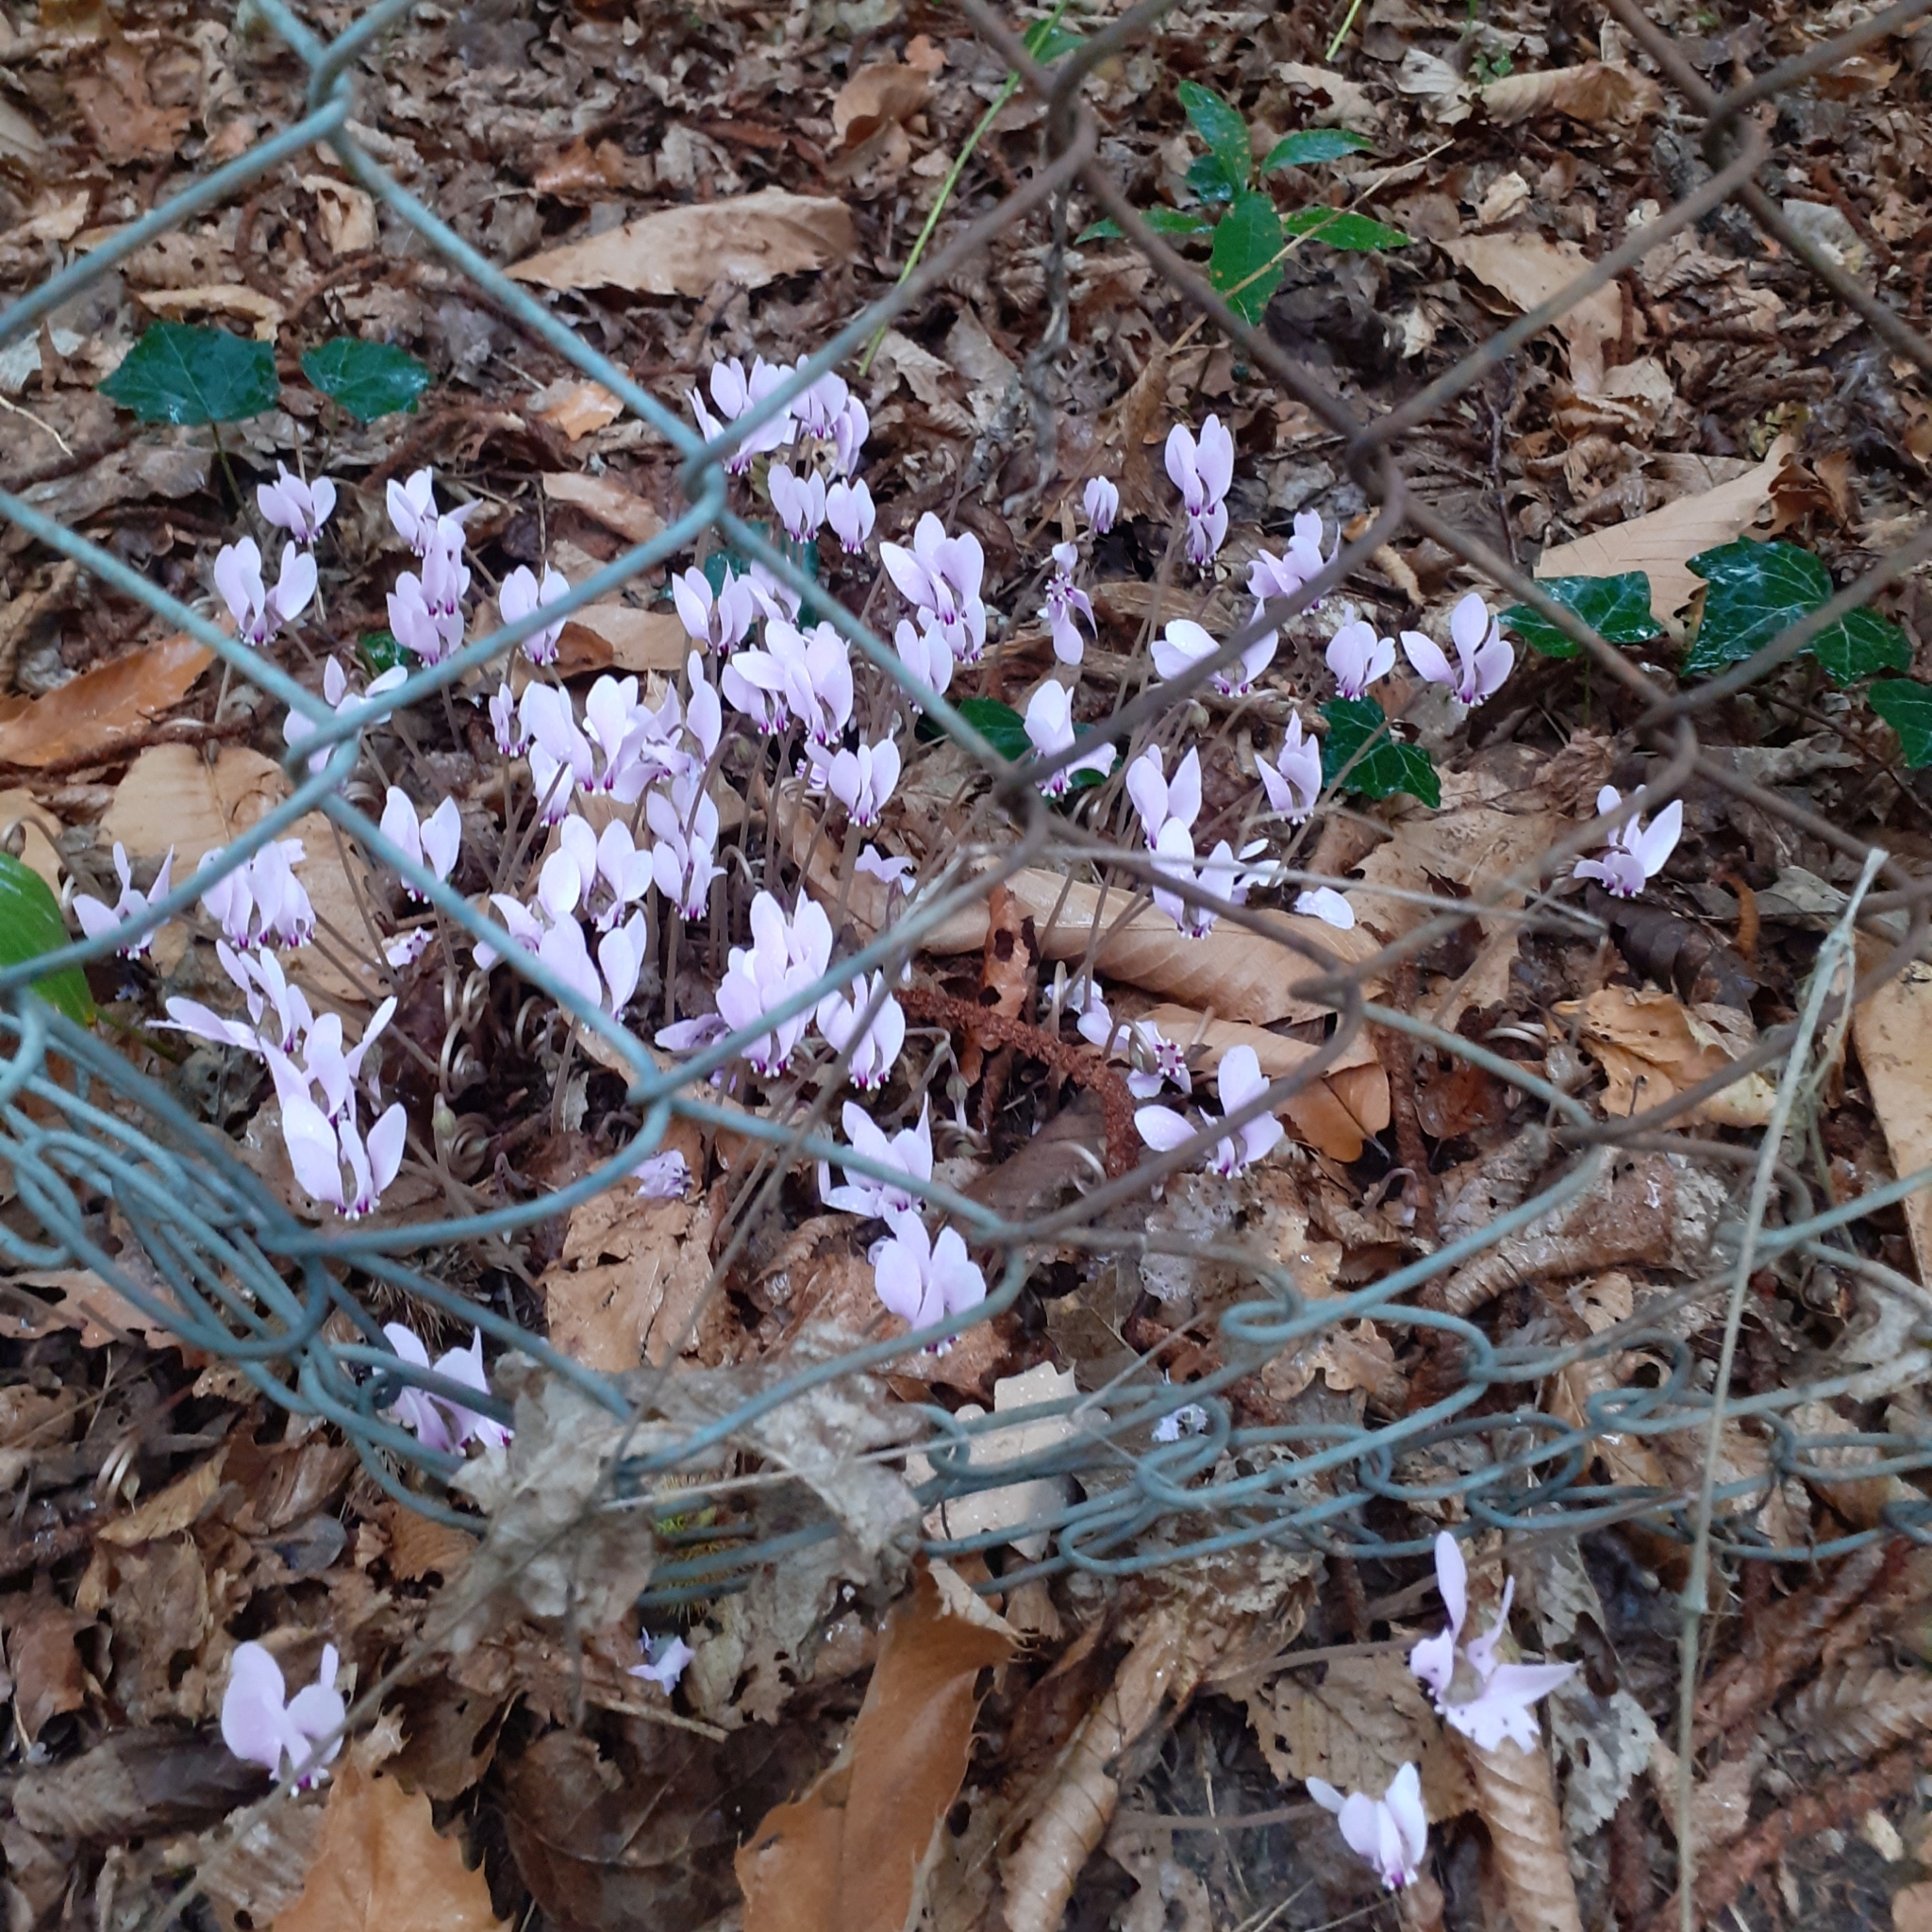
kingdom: Plantae
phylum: Tracheophyta
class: Magnoliopsida
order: Ericales
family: Primulaceae
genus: Cyclamen
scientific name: Cyclamen hederifolium
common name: Sowbread
